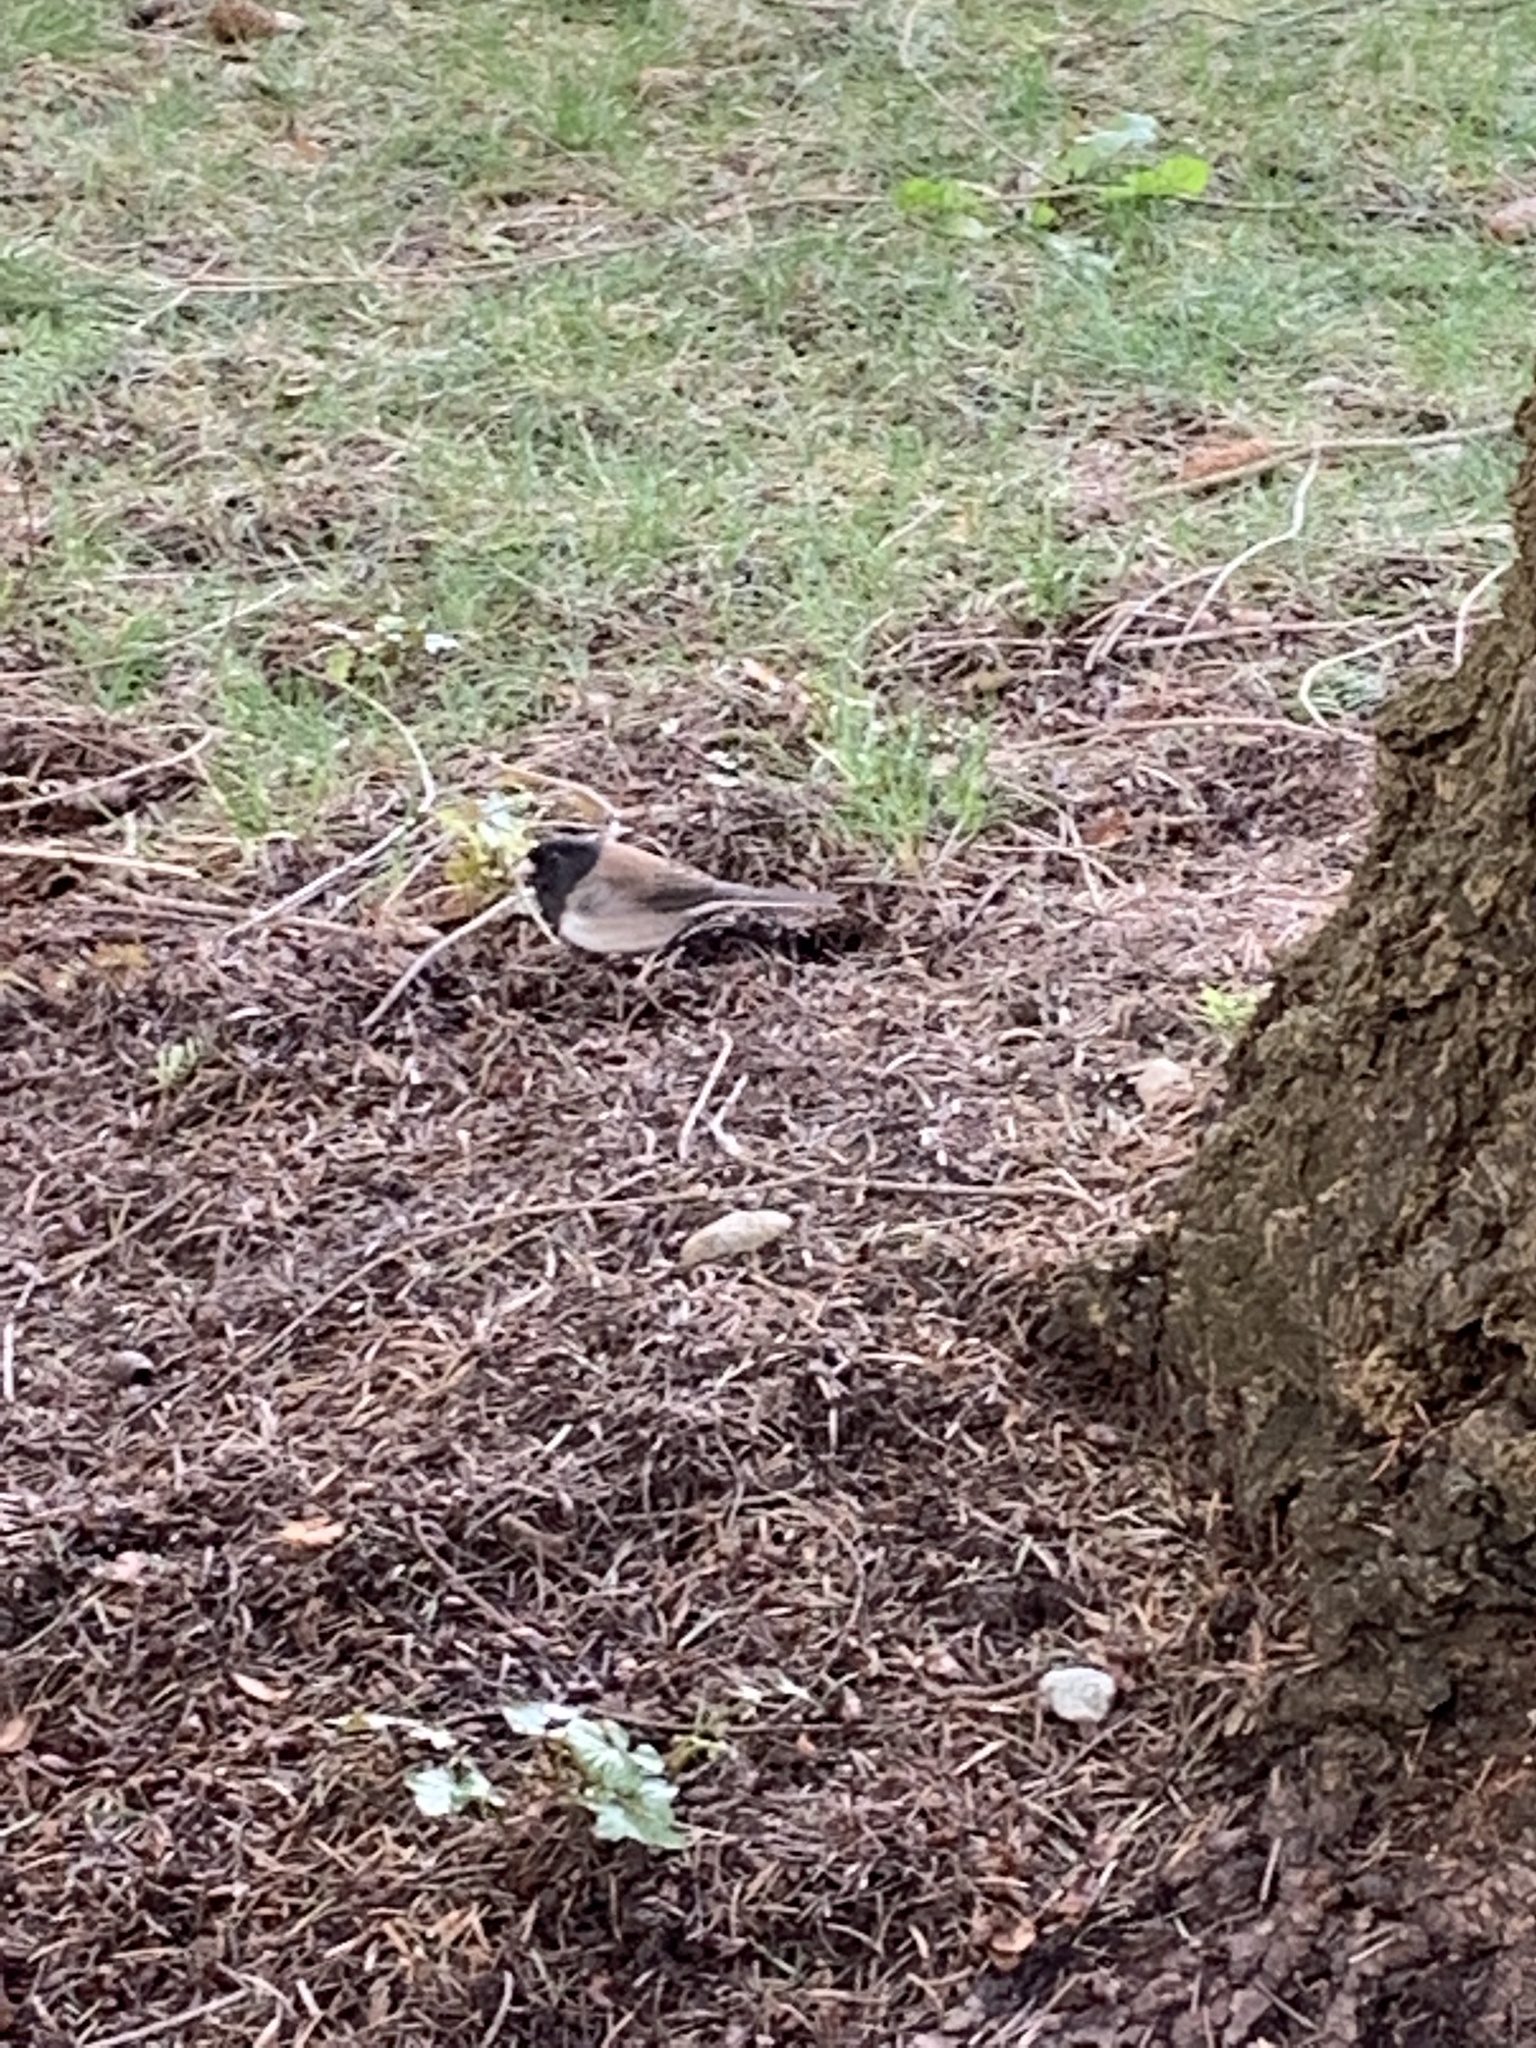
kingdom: Animalia
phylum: Chordata
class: Aves
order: Passeriformes
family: Passerellidae
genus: Junco
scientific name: Junco hyemalis
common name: Dark-eyed junco
